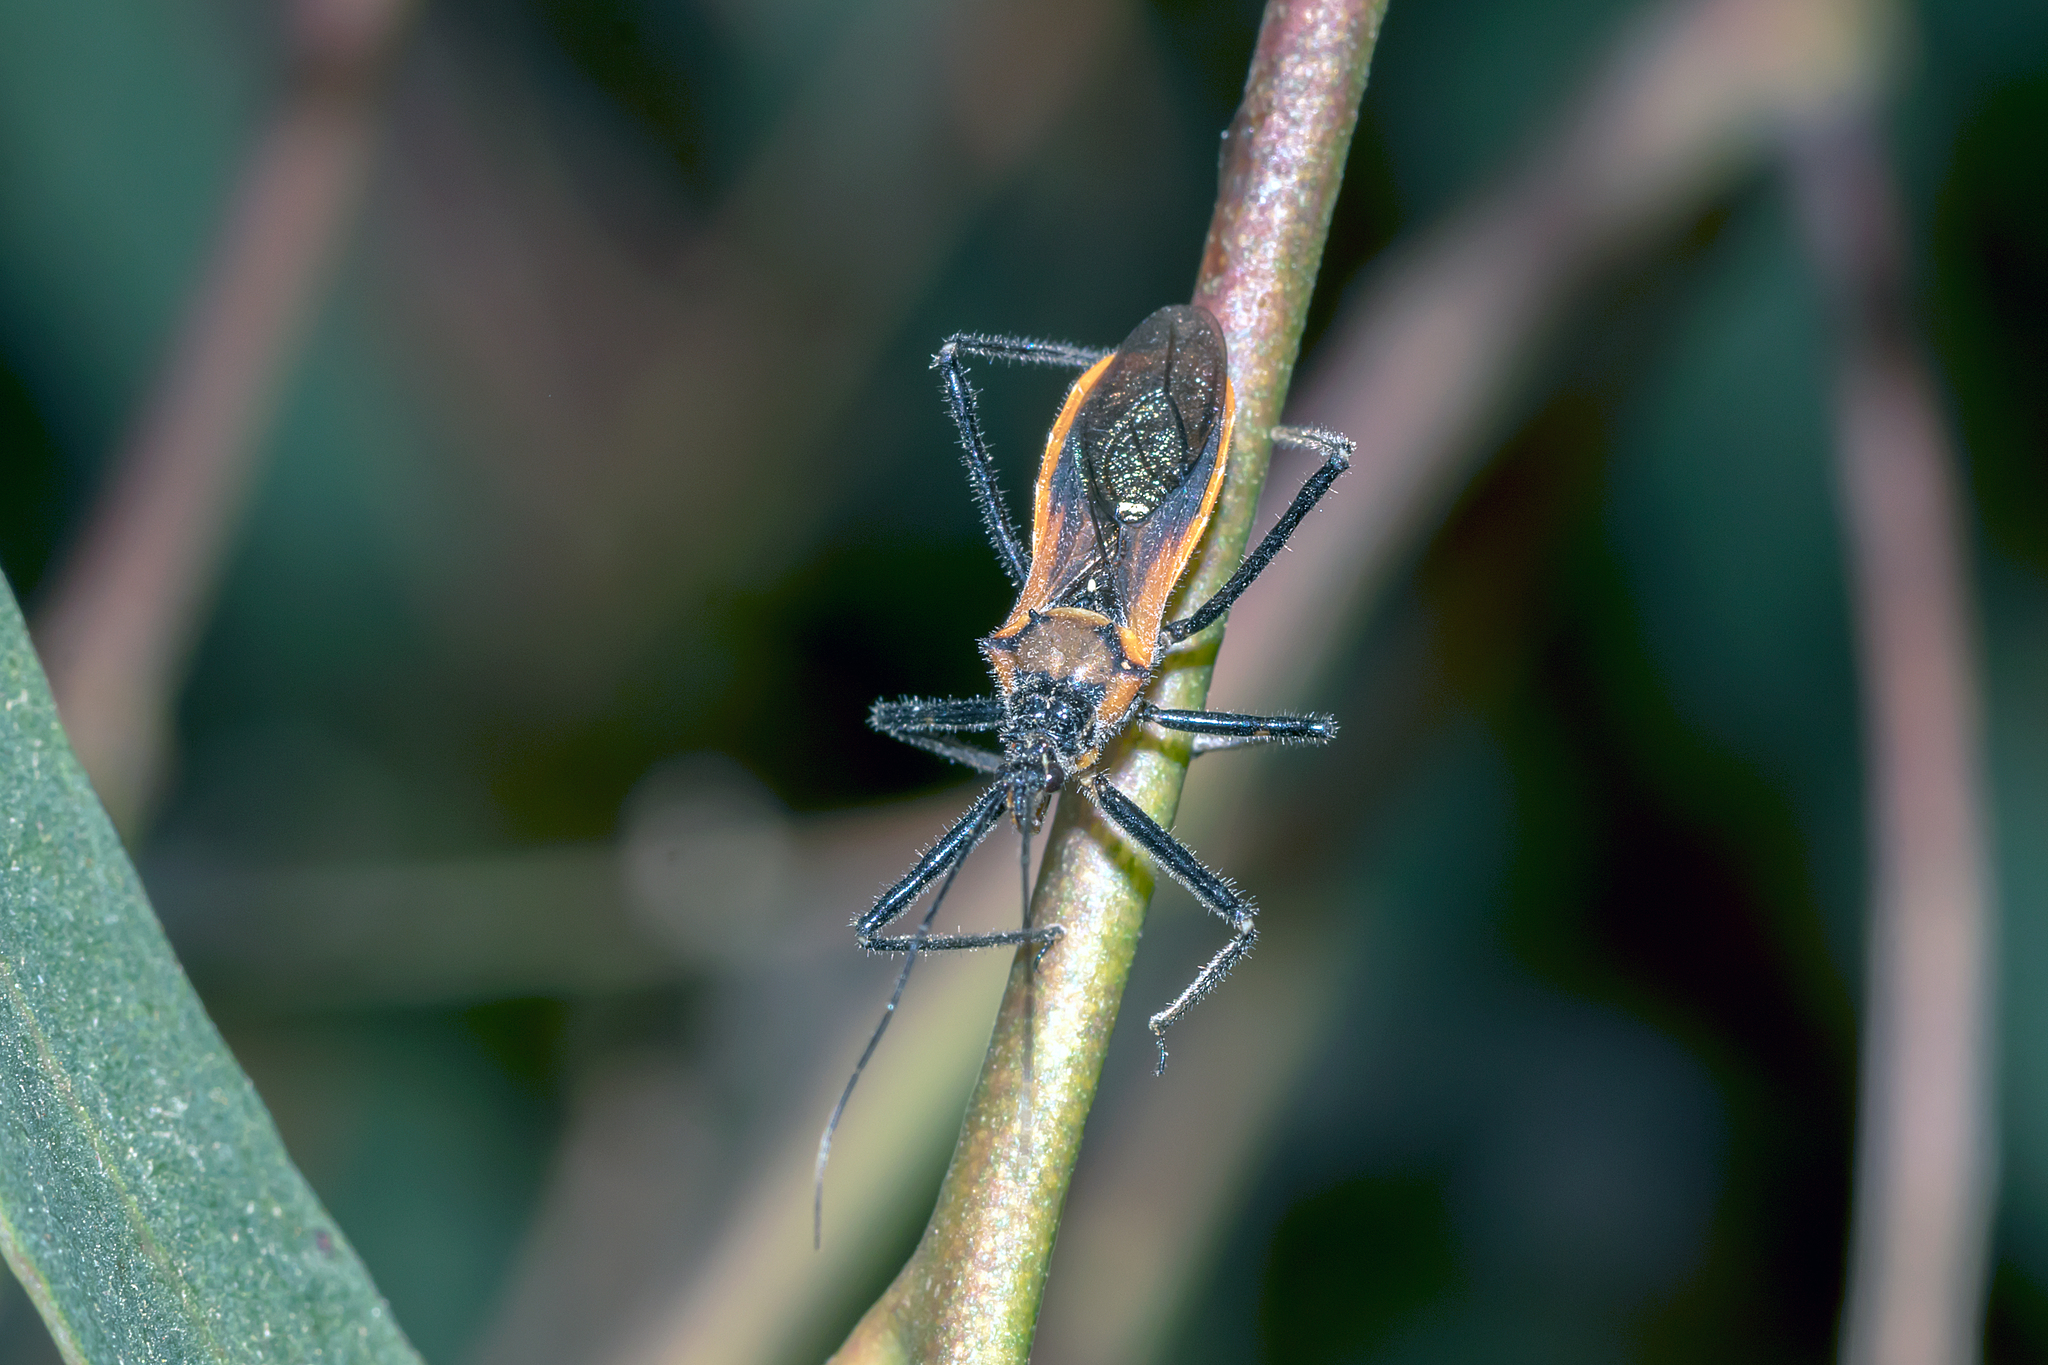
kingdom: Animalia
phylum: Arthropoda
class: Insecta
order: Hemiptera
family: Reduviidae
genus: Gminatus
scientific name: Gminatus australis
